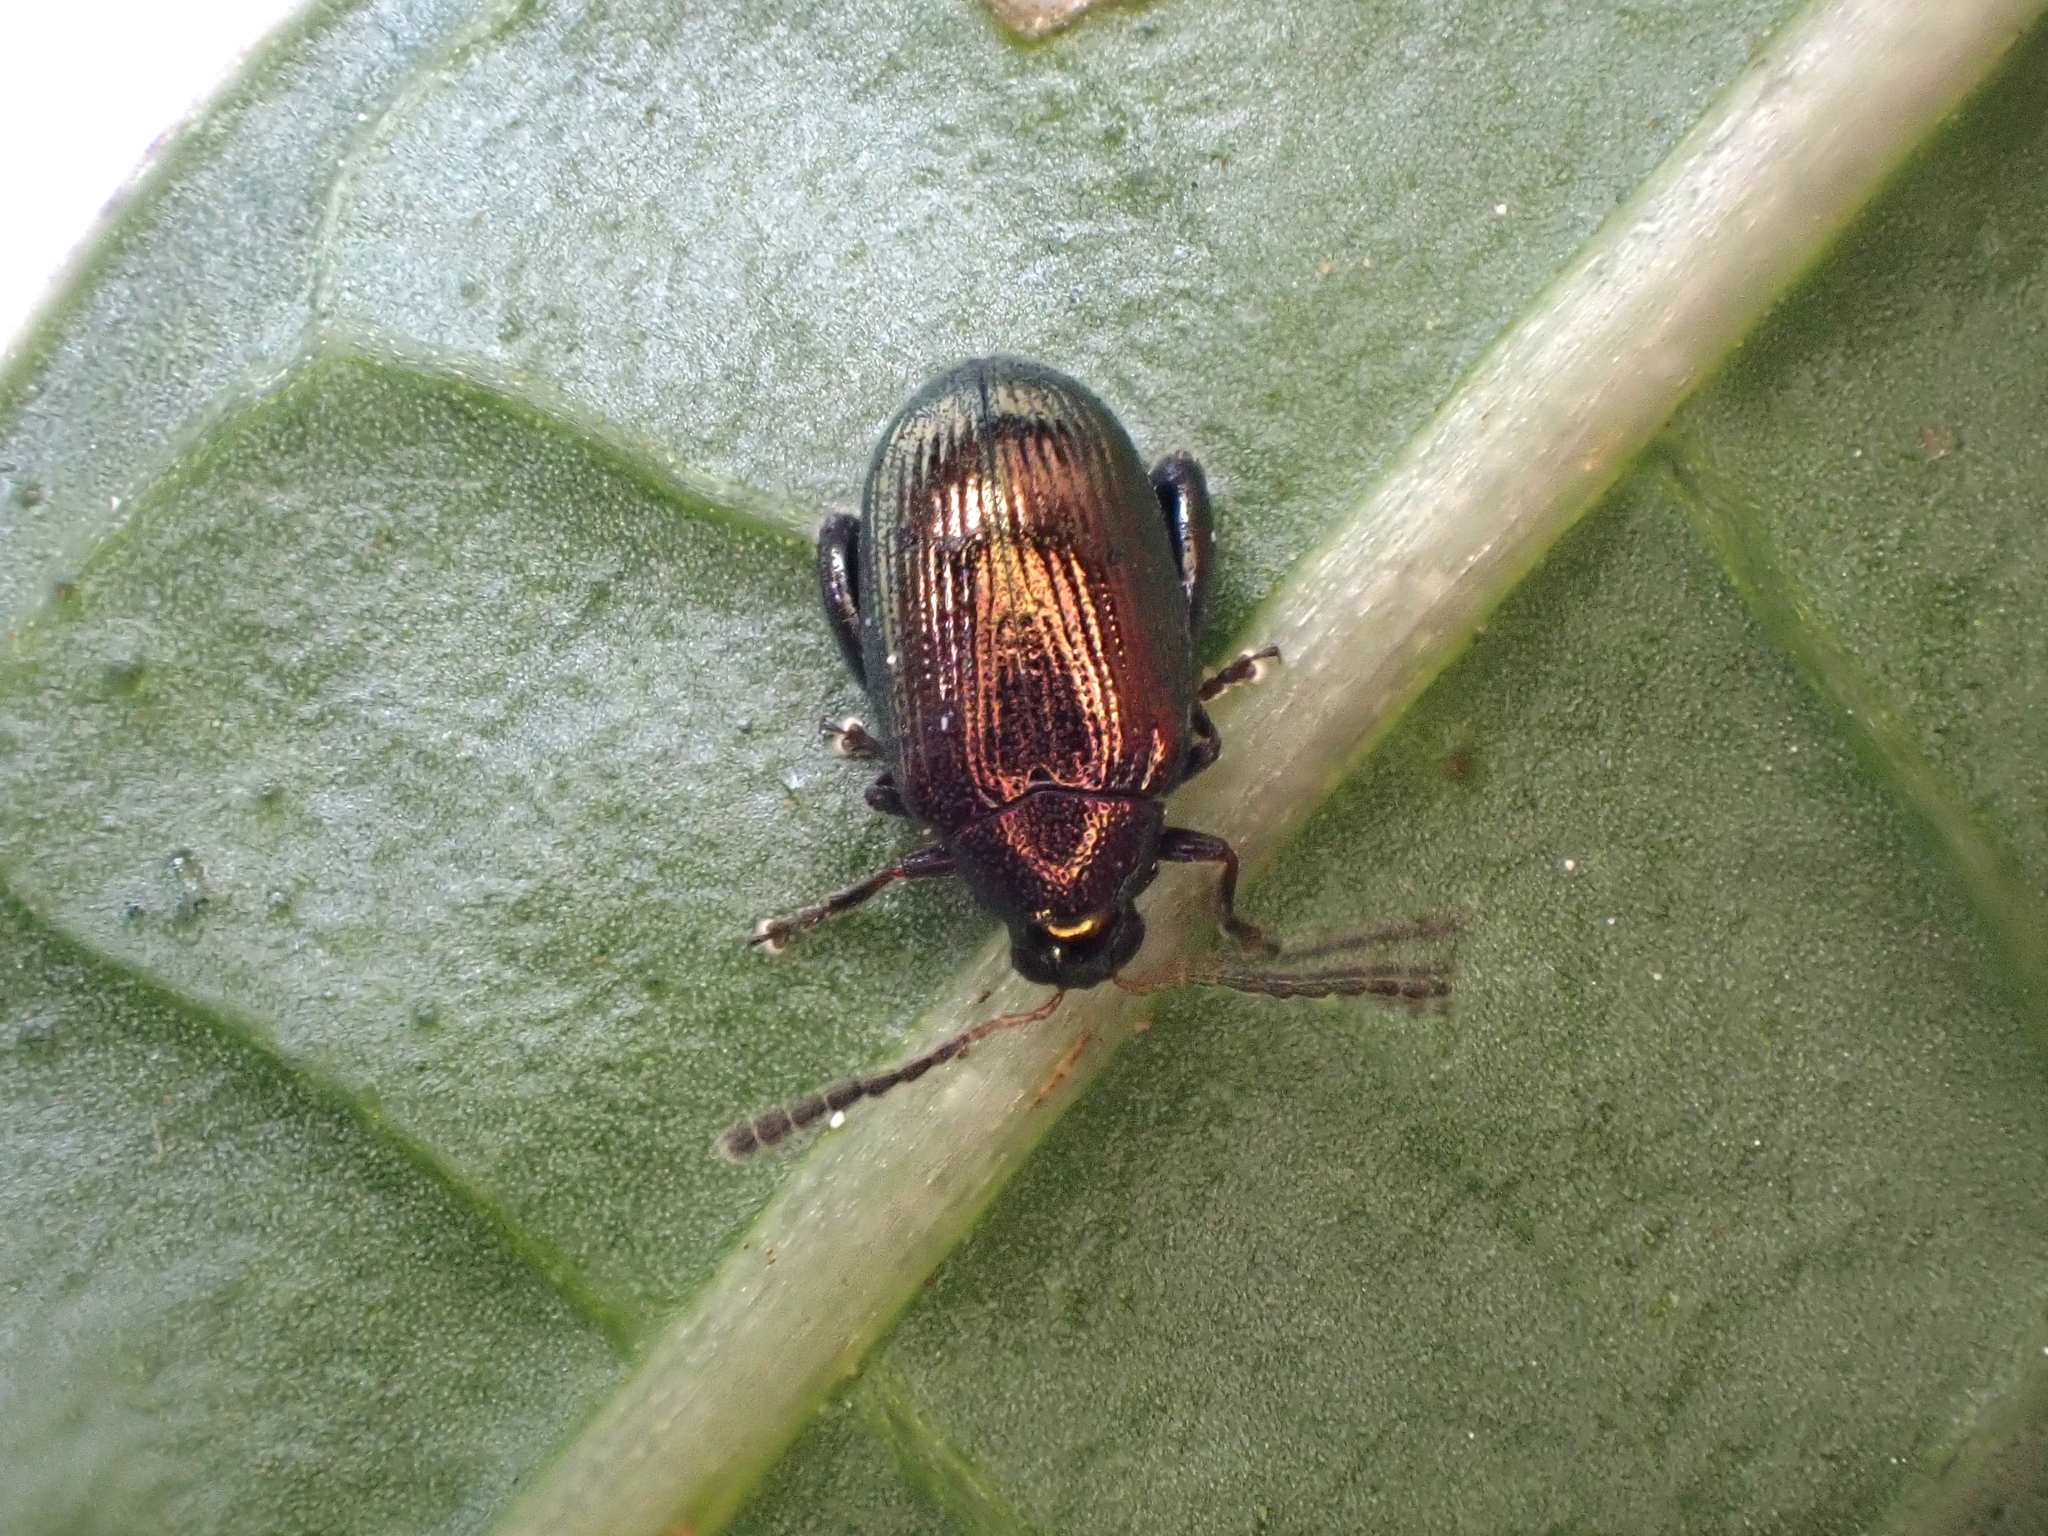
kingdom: Animalia
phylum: Arthropoda
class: Insecta
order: Coleoptera
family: Chrysomelidae
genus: Psylliodes
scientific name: Psylliodes brettinghami
